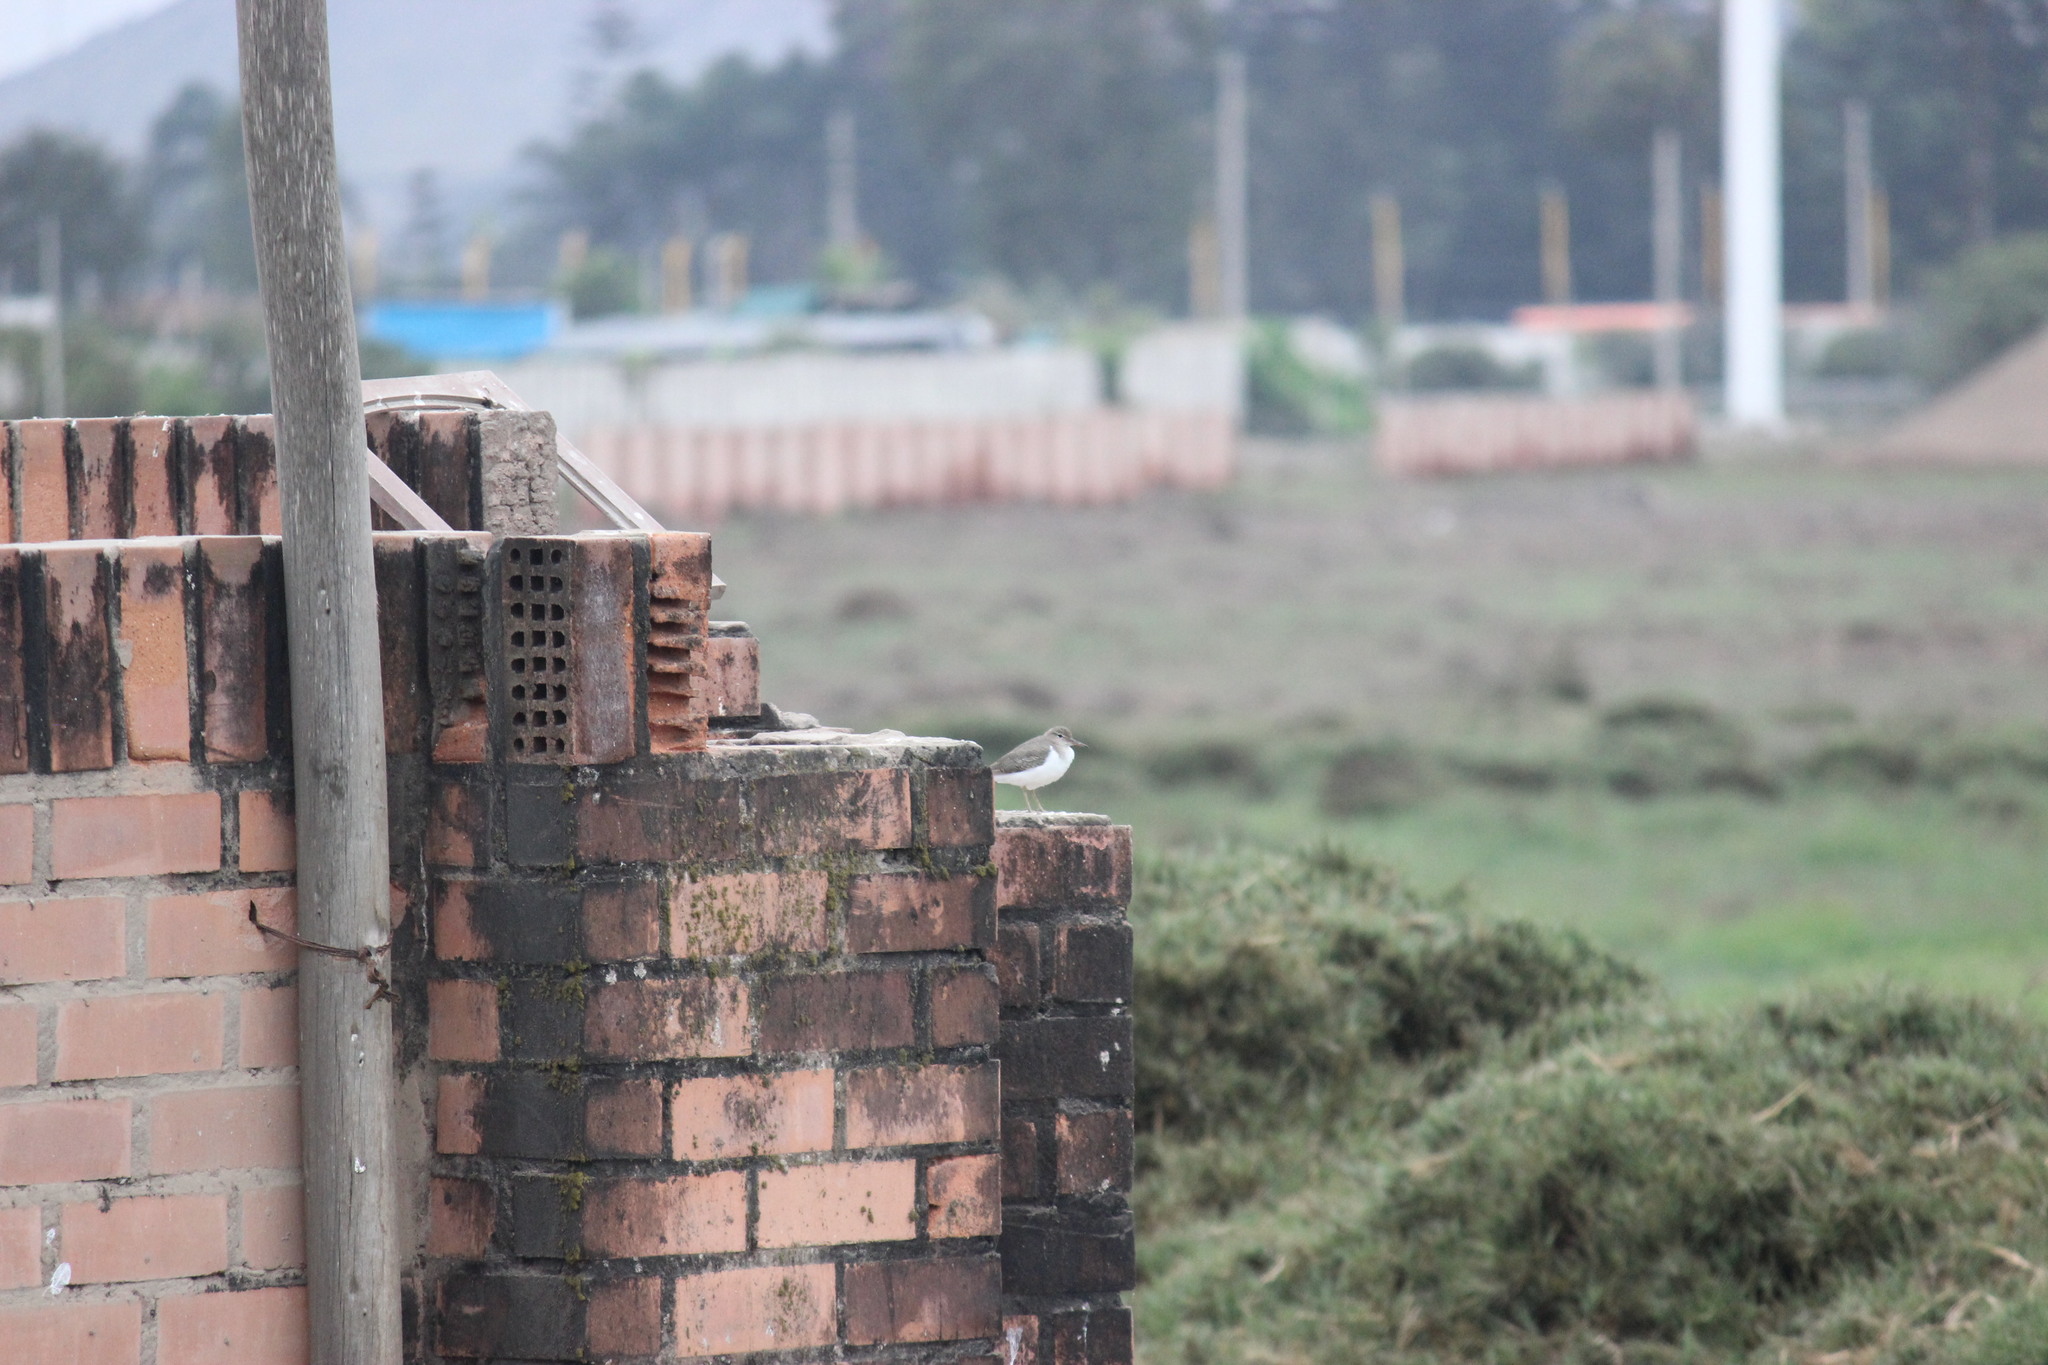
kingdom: Animalia
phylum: Chordata
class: Aves
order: Charadriiformes
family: Scolopacidae
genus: Actitis
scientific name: Actitis macularius
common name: Spotted sandpiper
